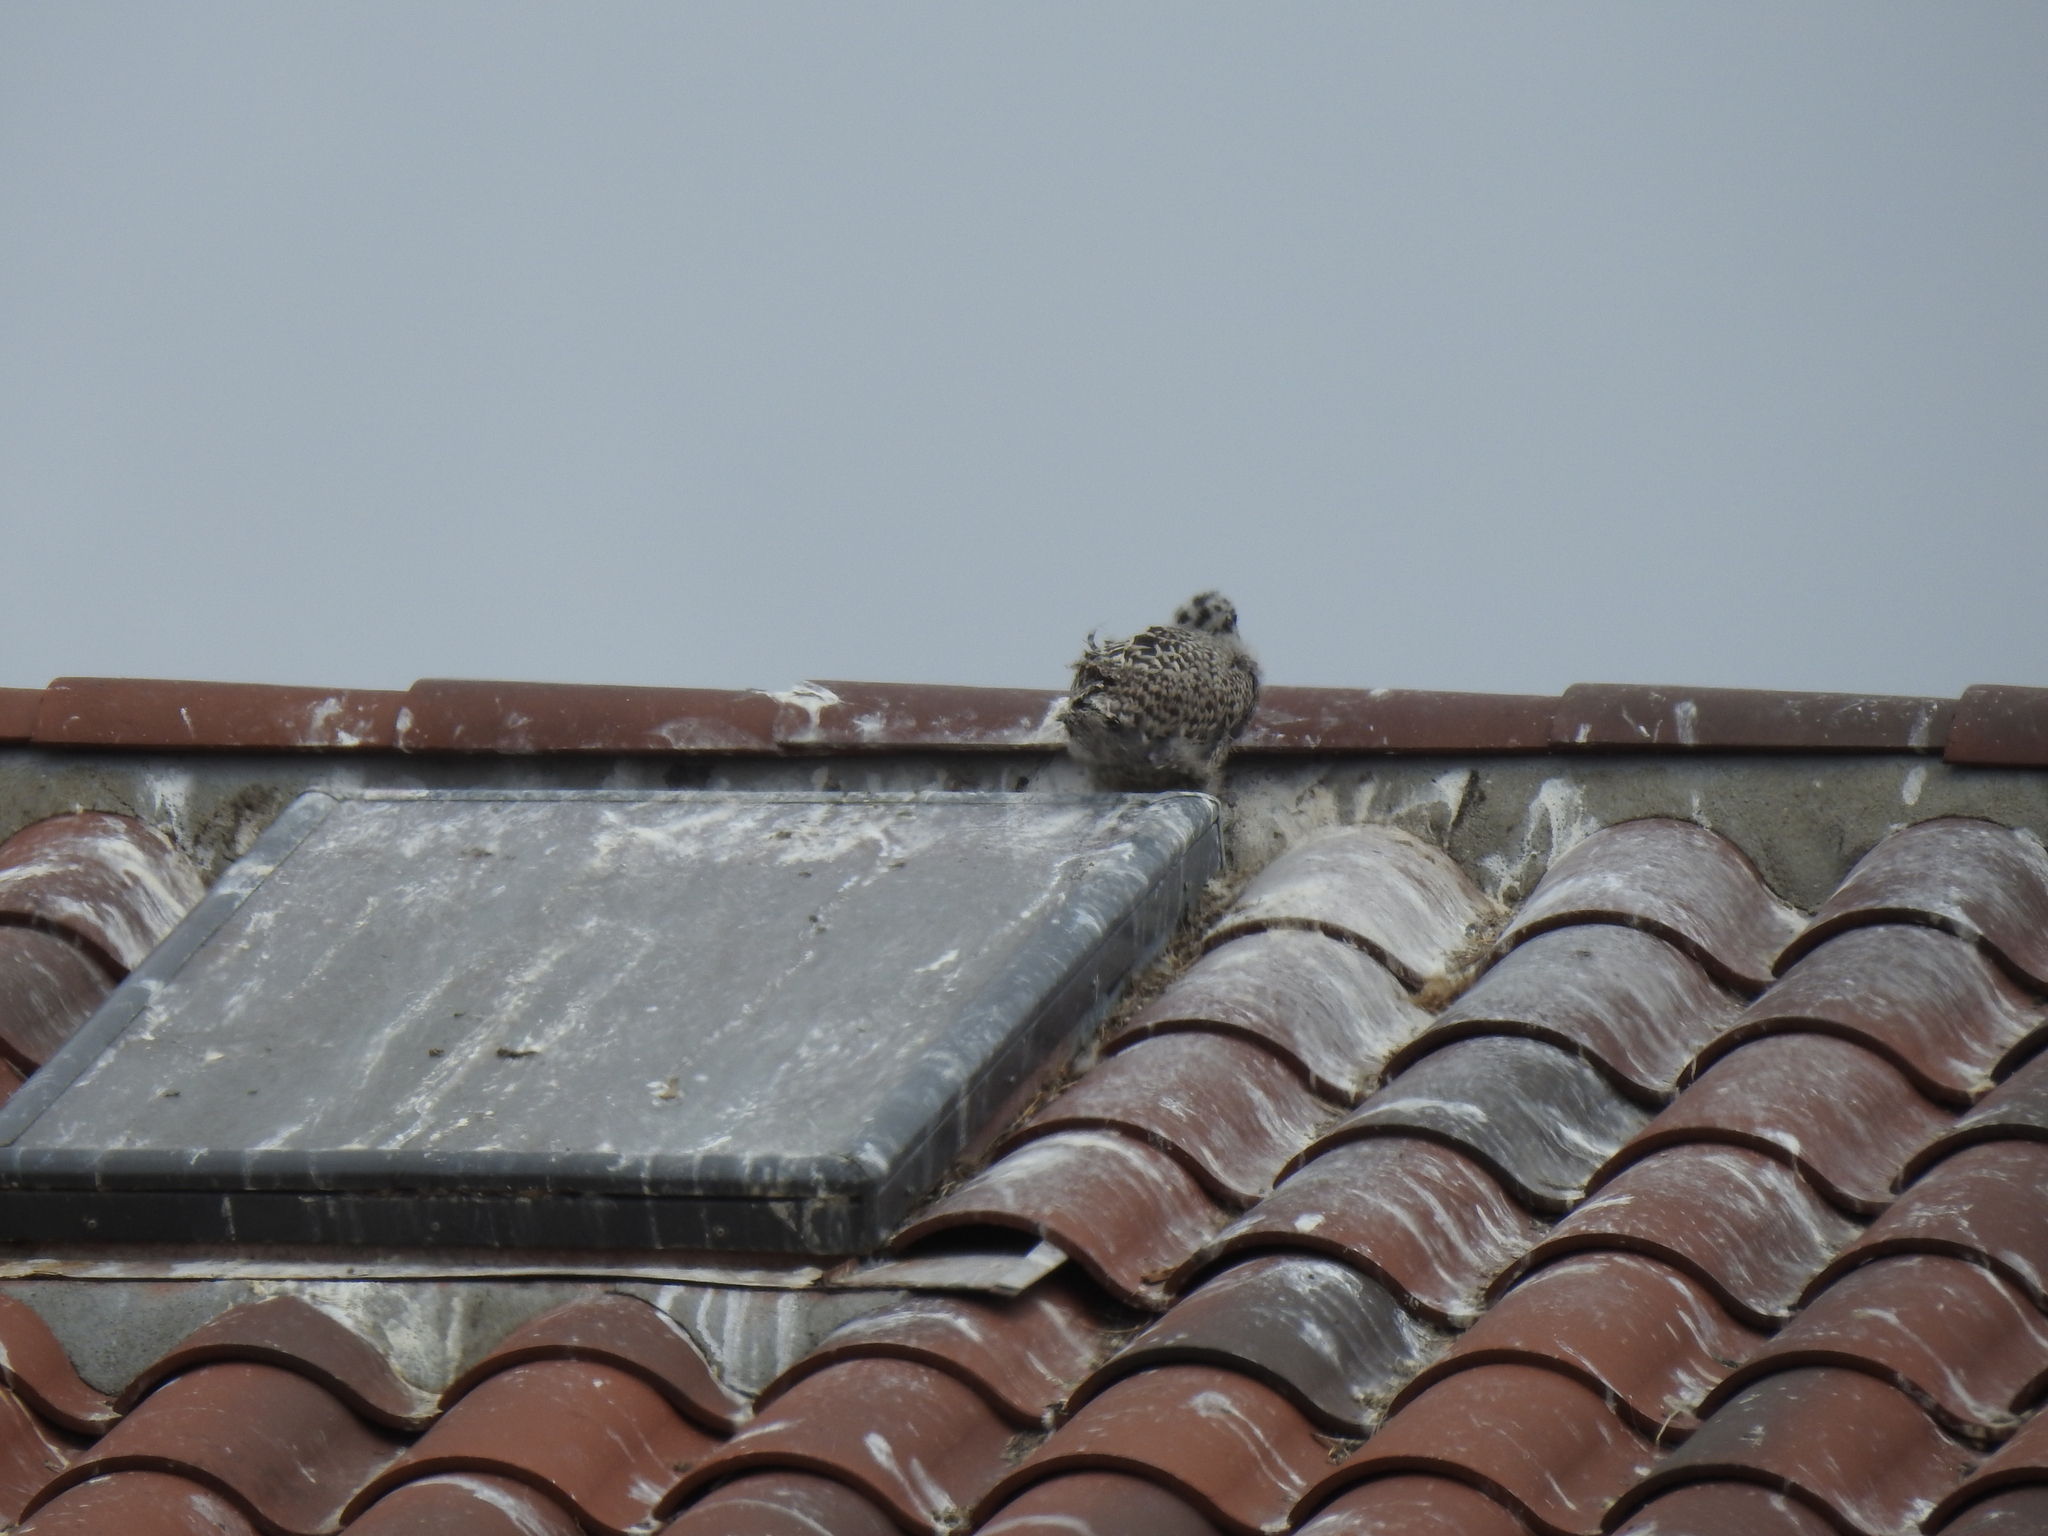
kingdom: Animalia
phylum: Chordata
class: Aves
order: Charadriiformes
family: Laridae
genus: Larus
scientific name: Larus occidentalis
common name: Western gull
